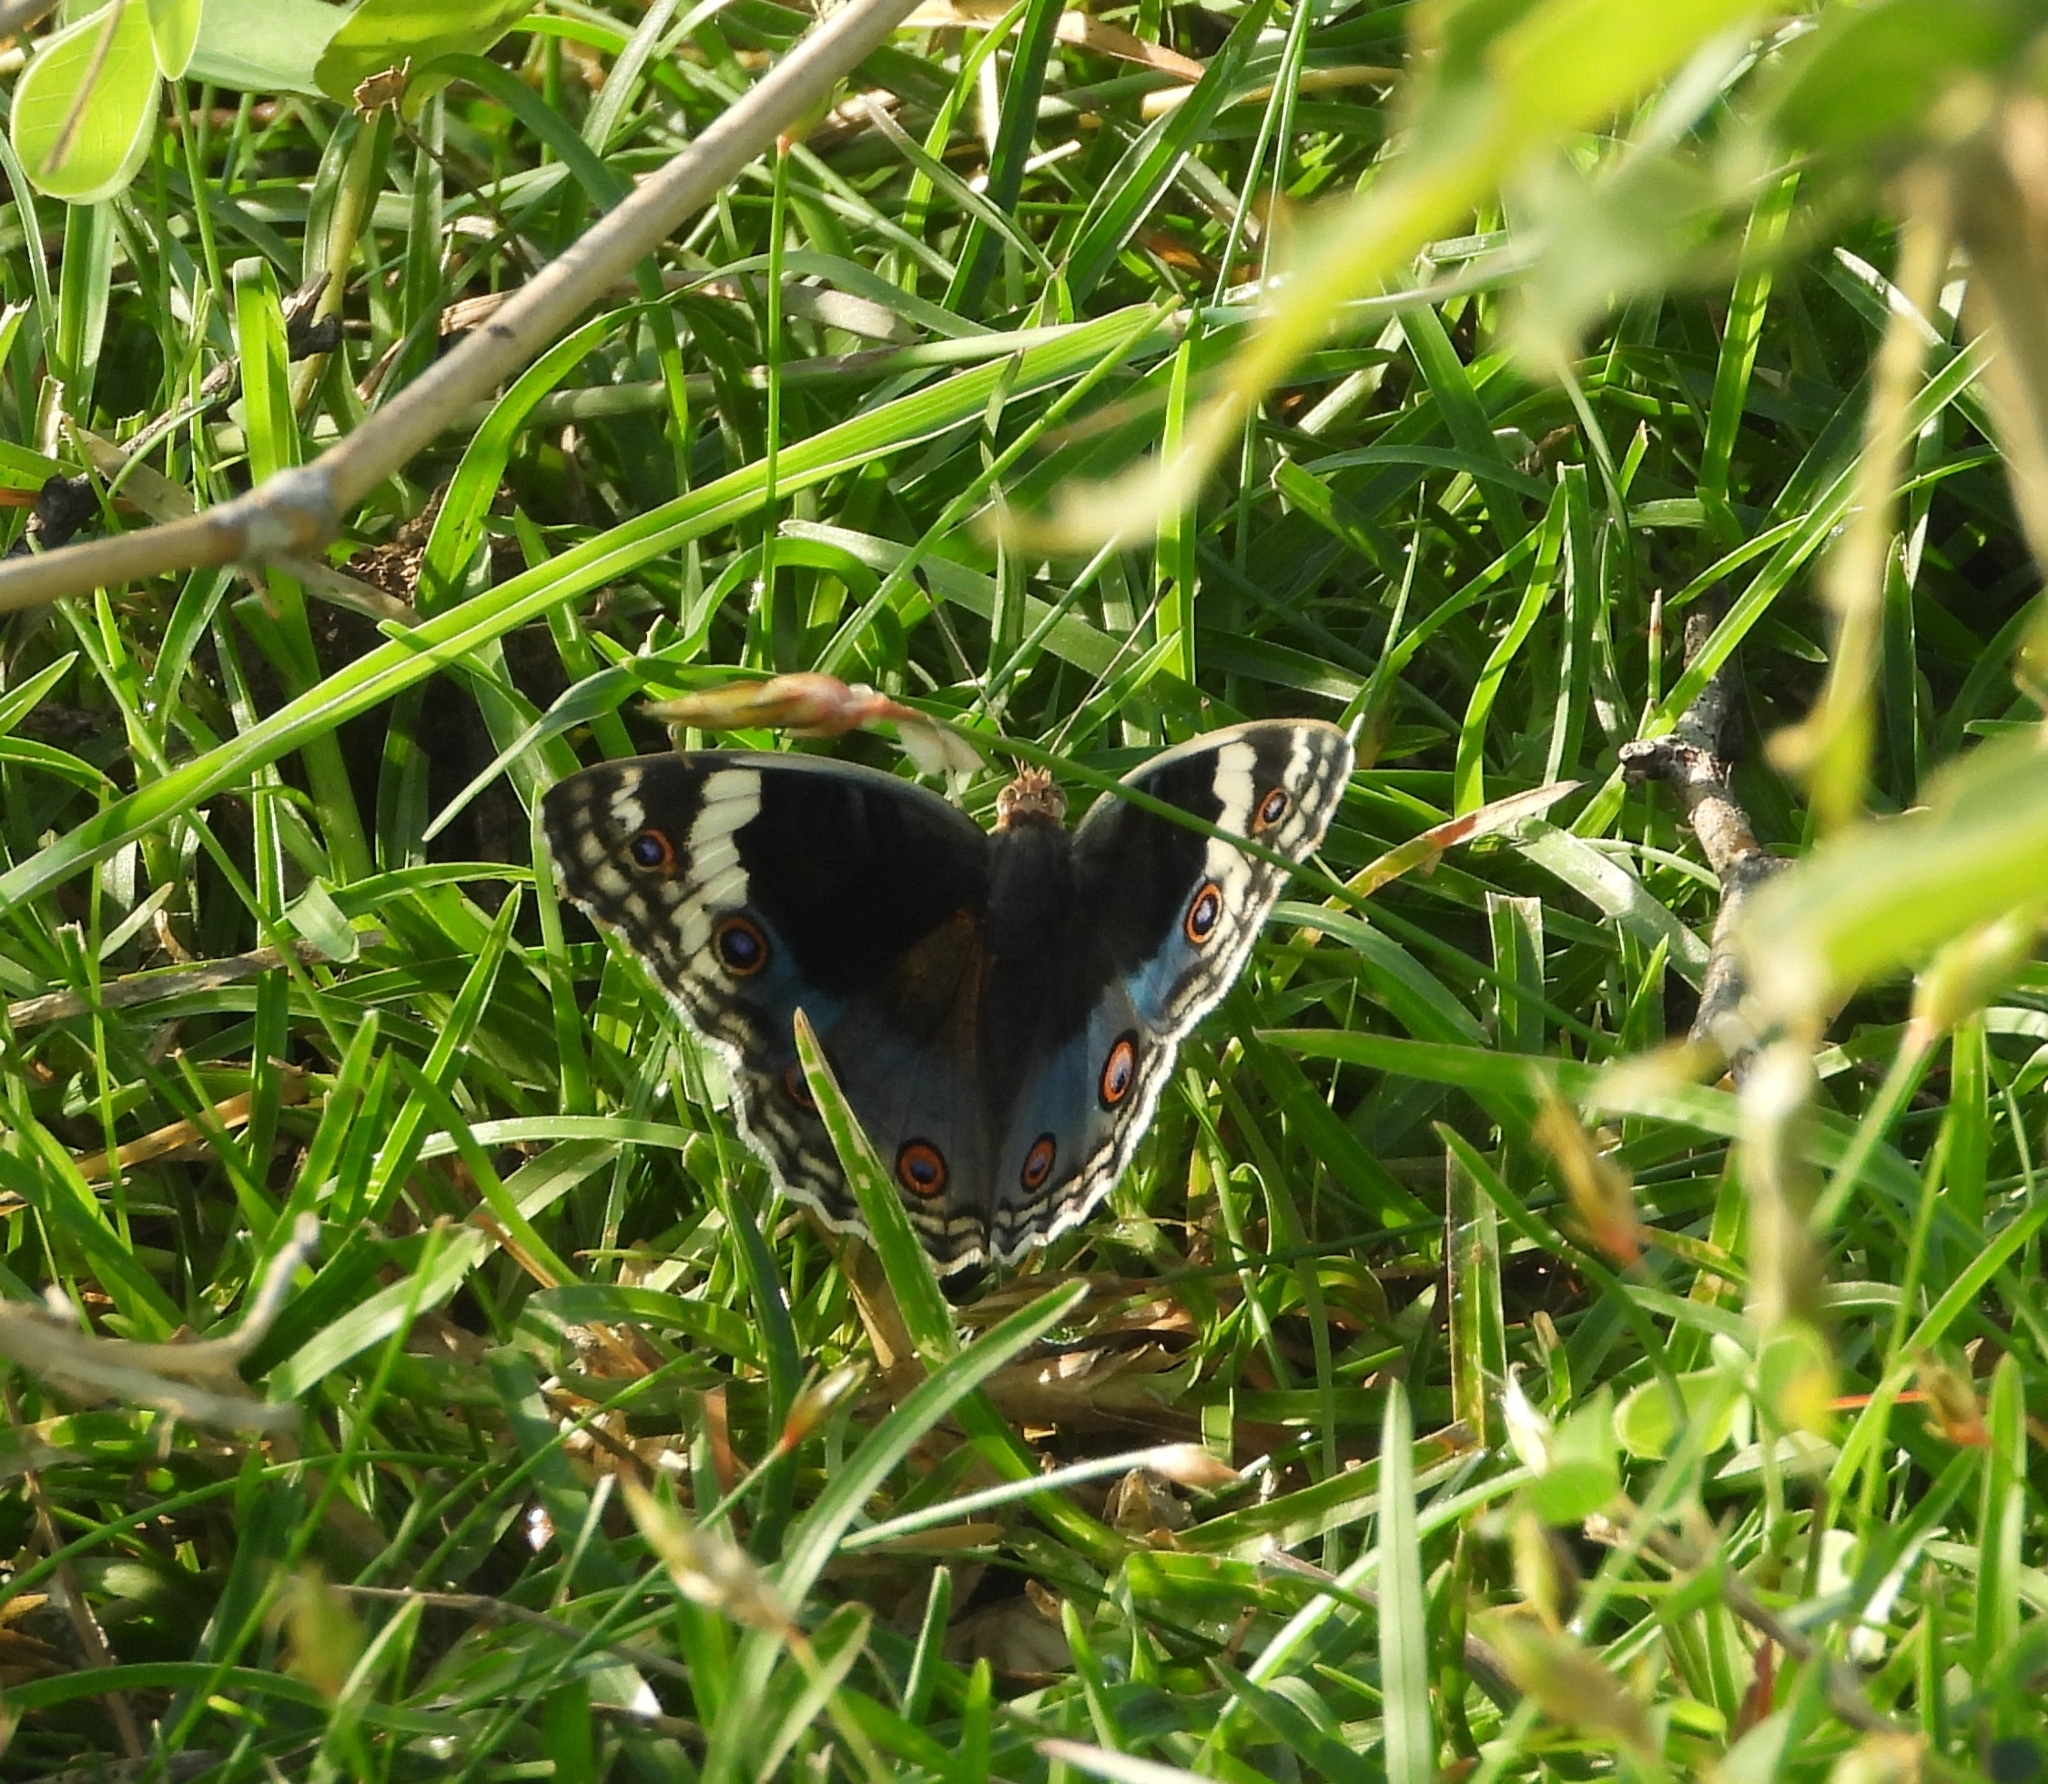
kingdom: Animalia
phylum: Arthropoda
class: Insecta
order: Lepidoptera
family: Nymphalidae
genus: Junonia
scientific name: Junonia orithya
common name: Blue pansy
